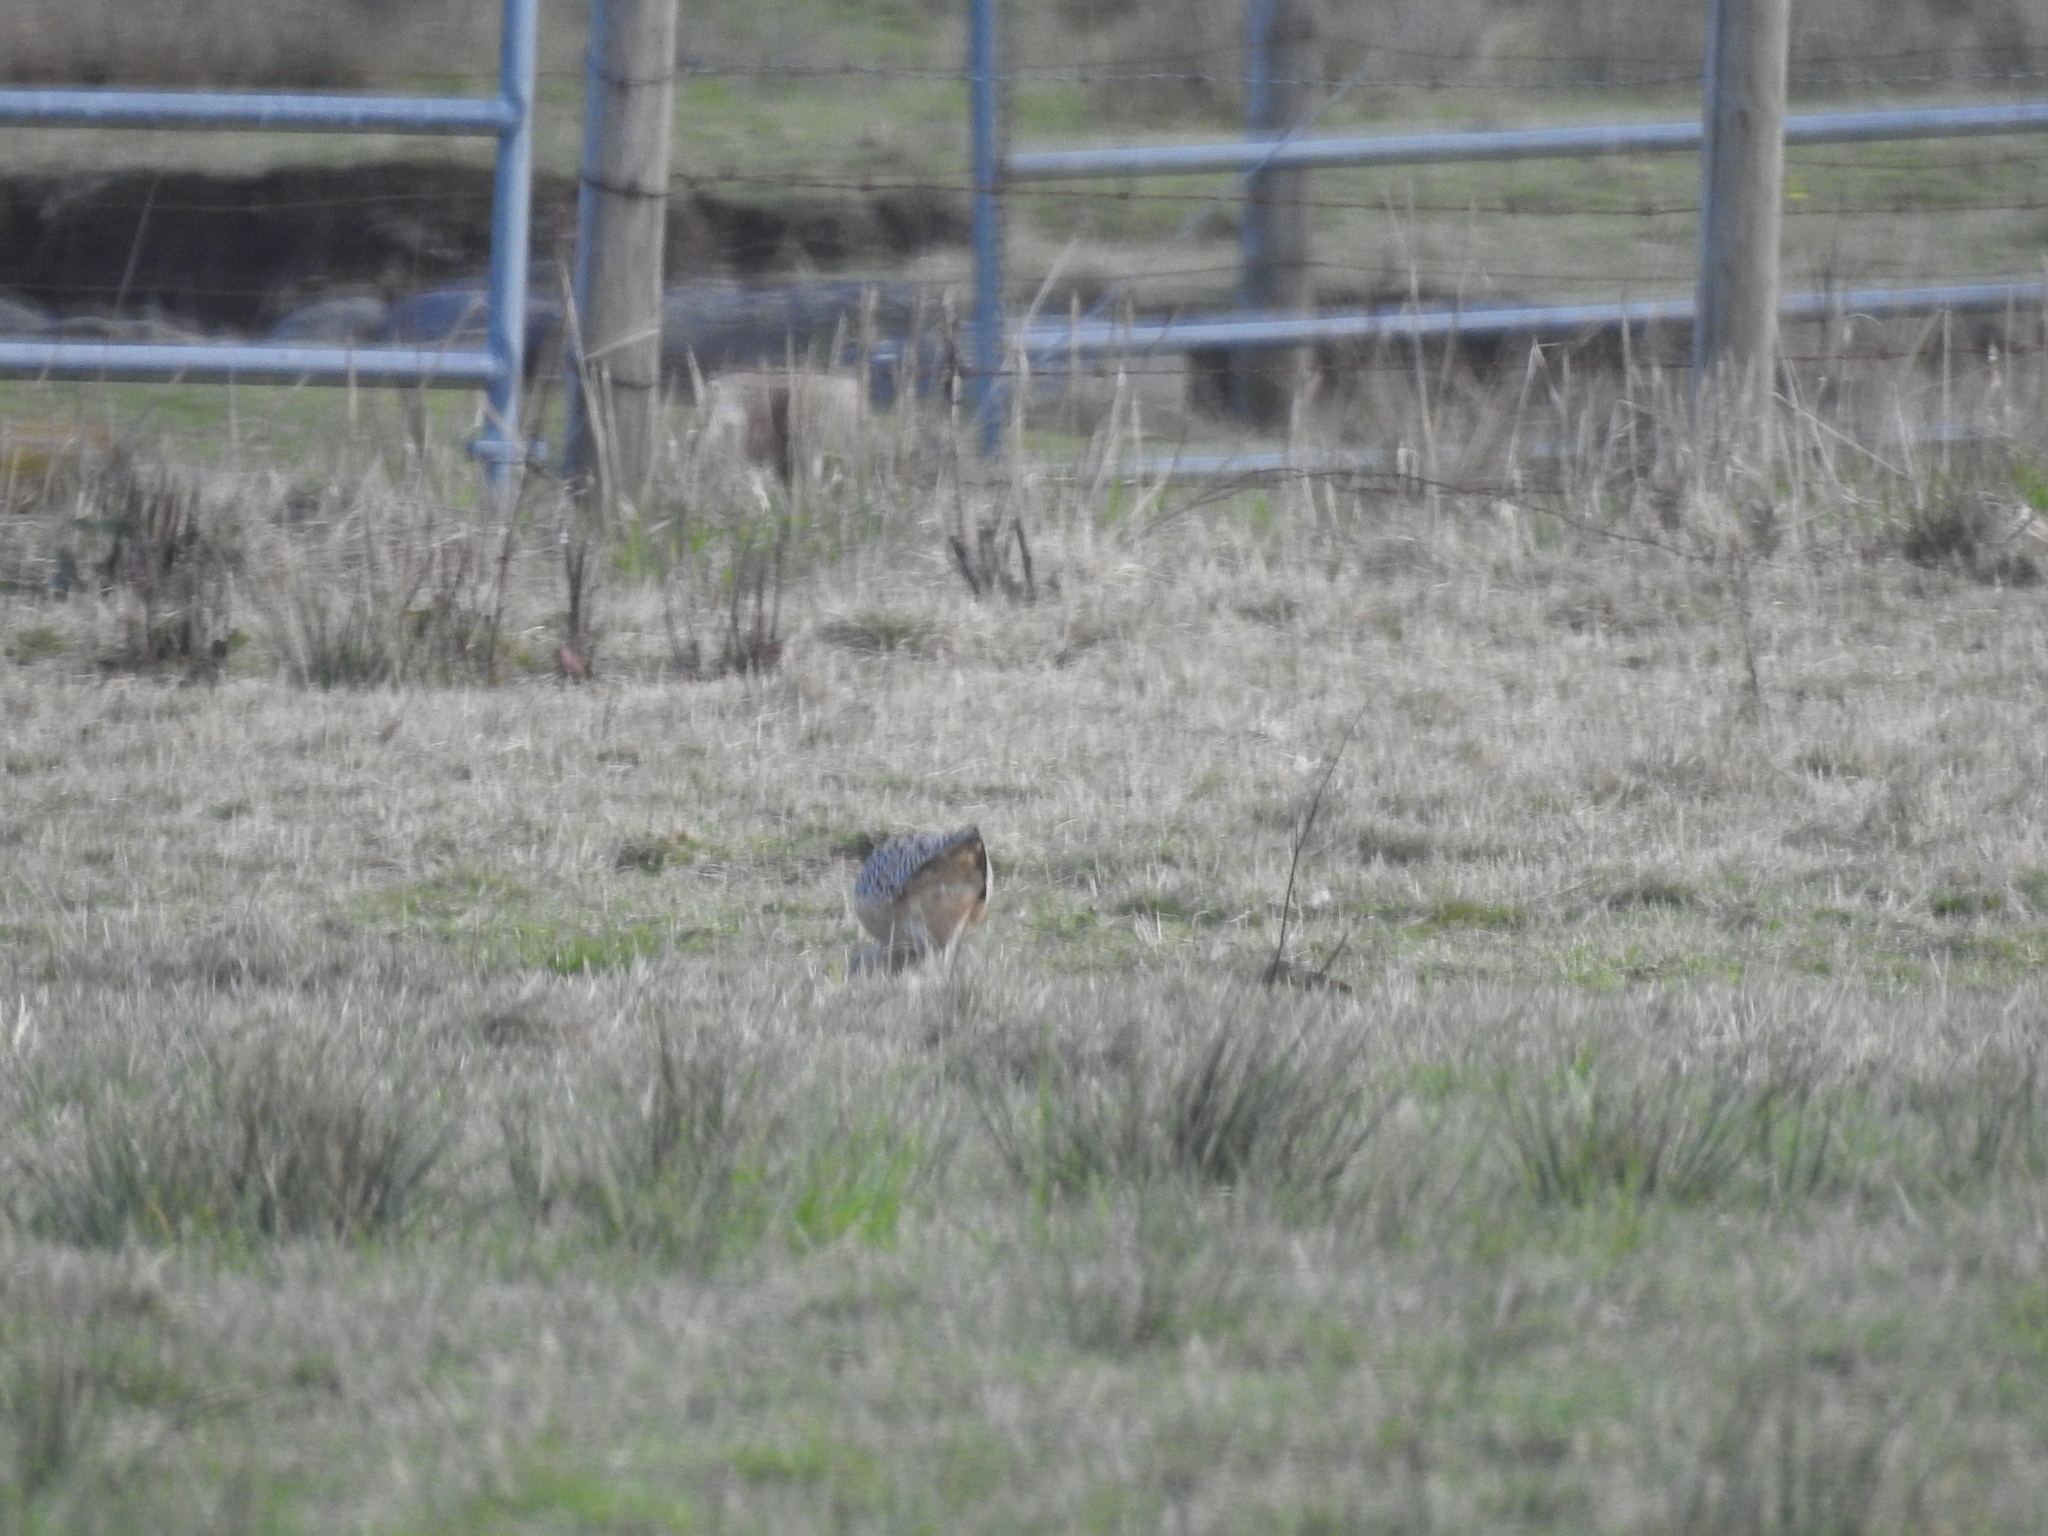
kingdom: Animalia
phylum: Chordata
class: Aves
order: Charadriiformes
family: Scolopacidae
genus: Numenius
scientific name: Numenius americanus
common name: Long-billed curlew
